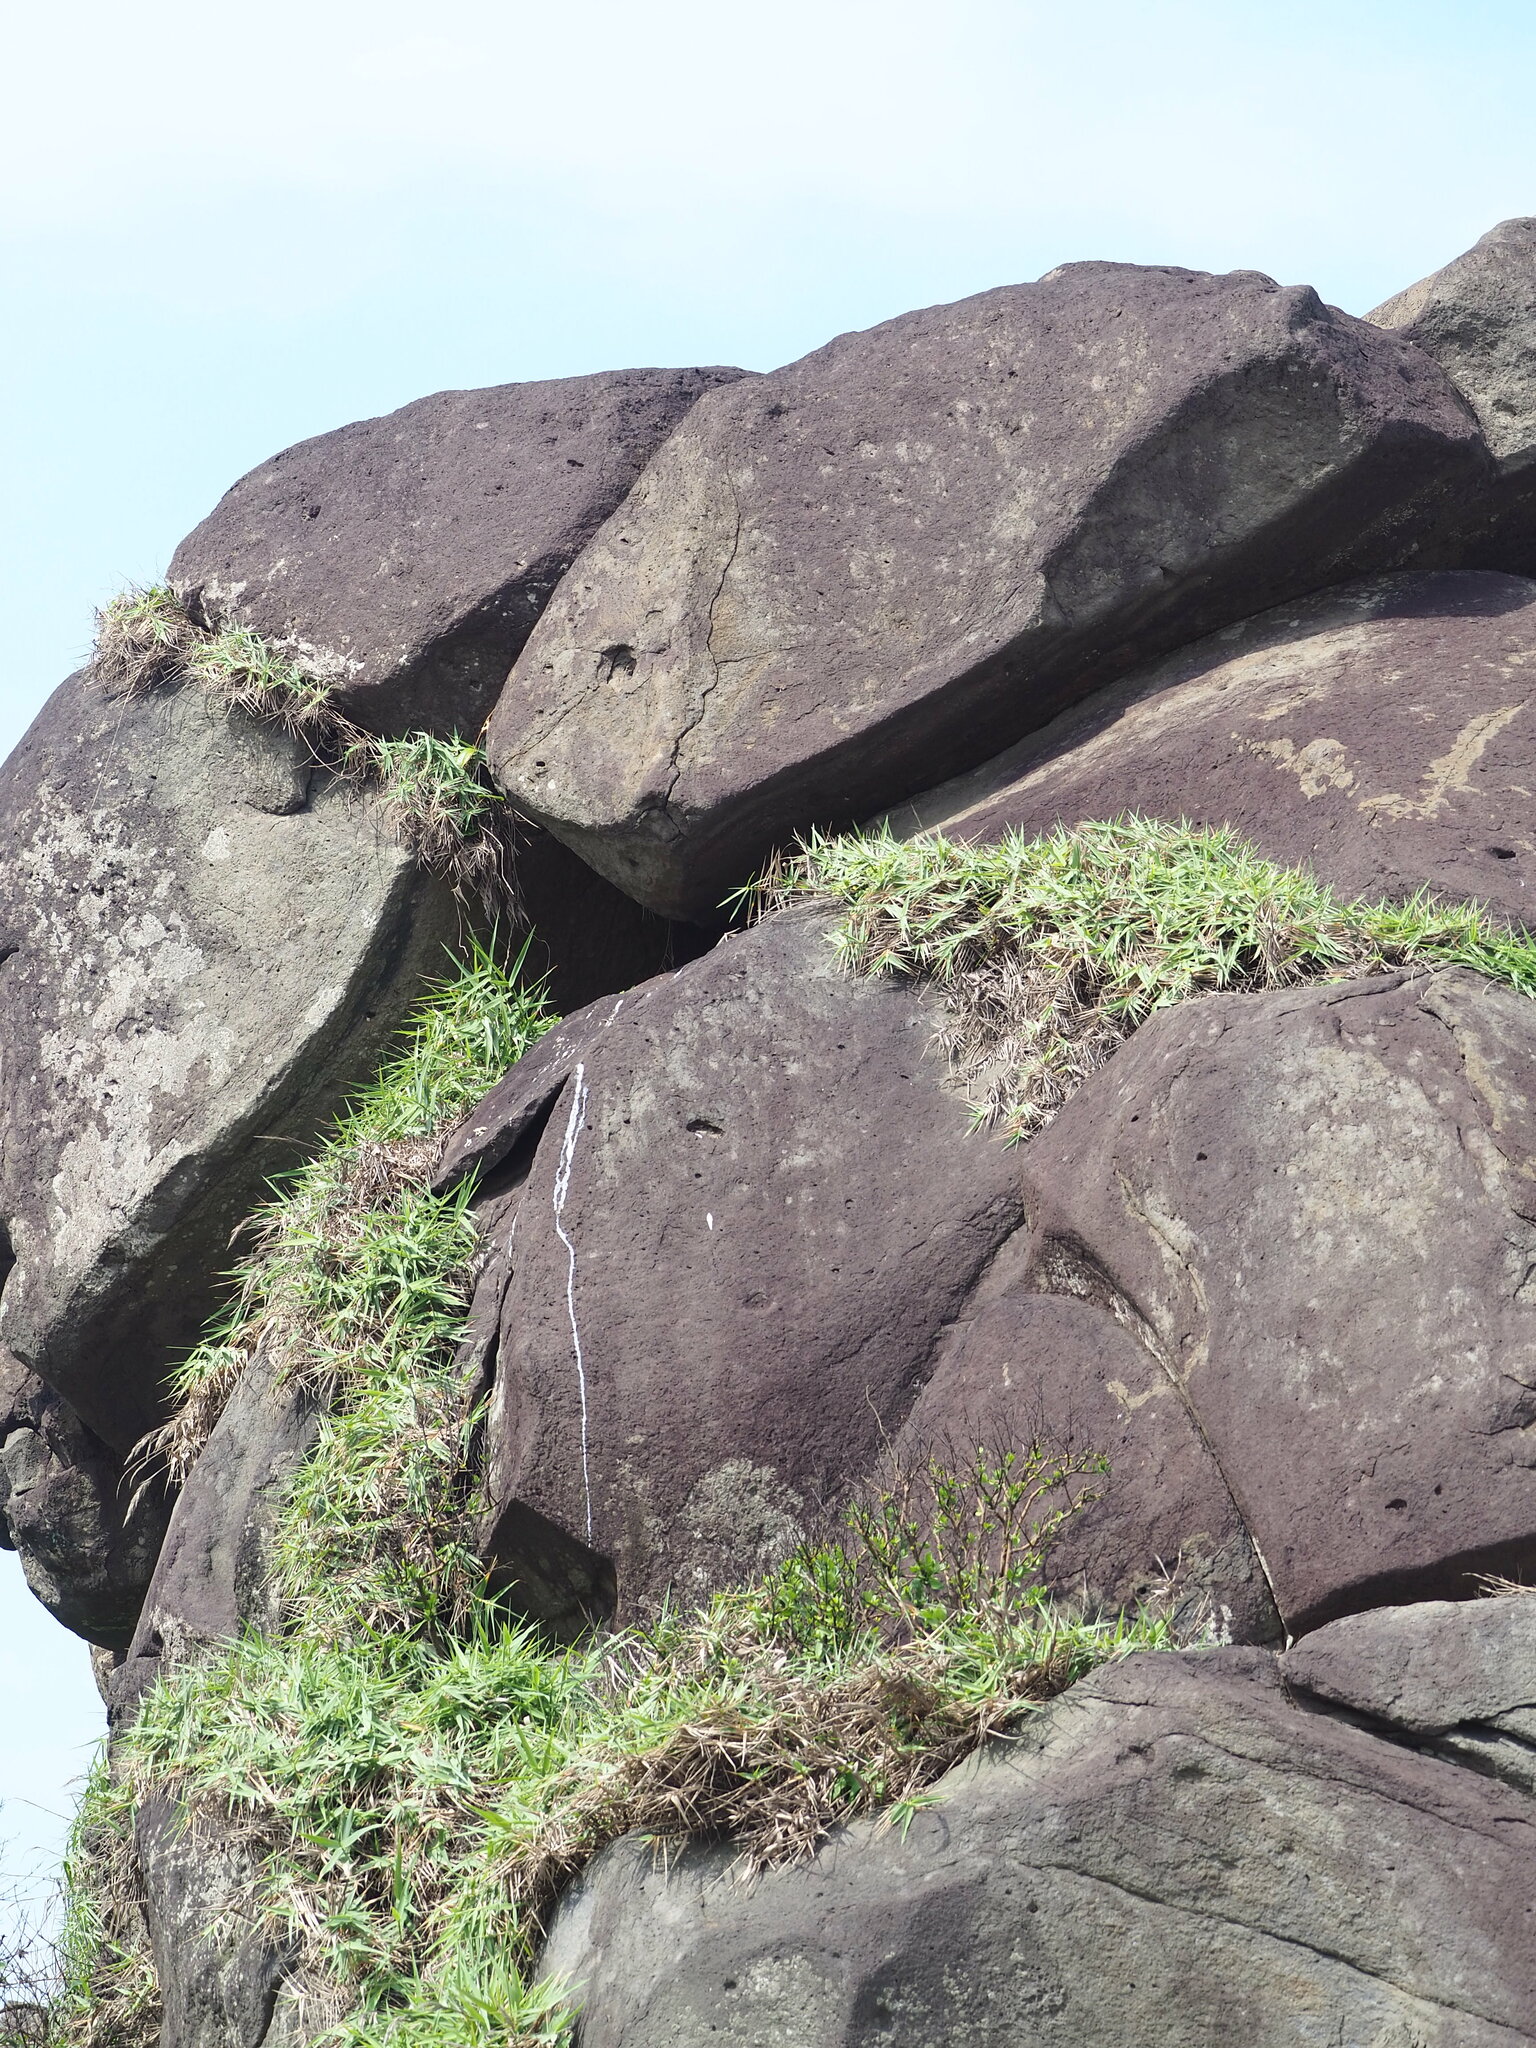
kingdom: Plantae
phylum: Tracheophyta
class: Liliopsida
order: Poales
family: Poaceae
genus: Arundo
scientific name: Arundo formosana
